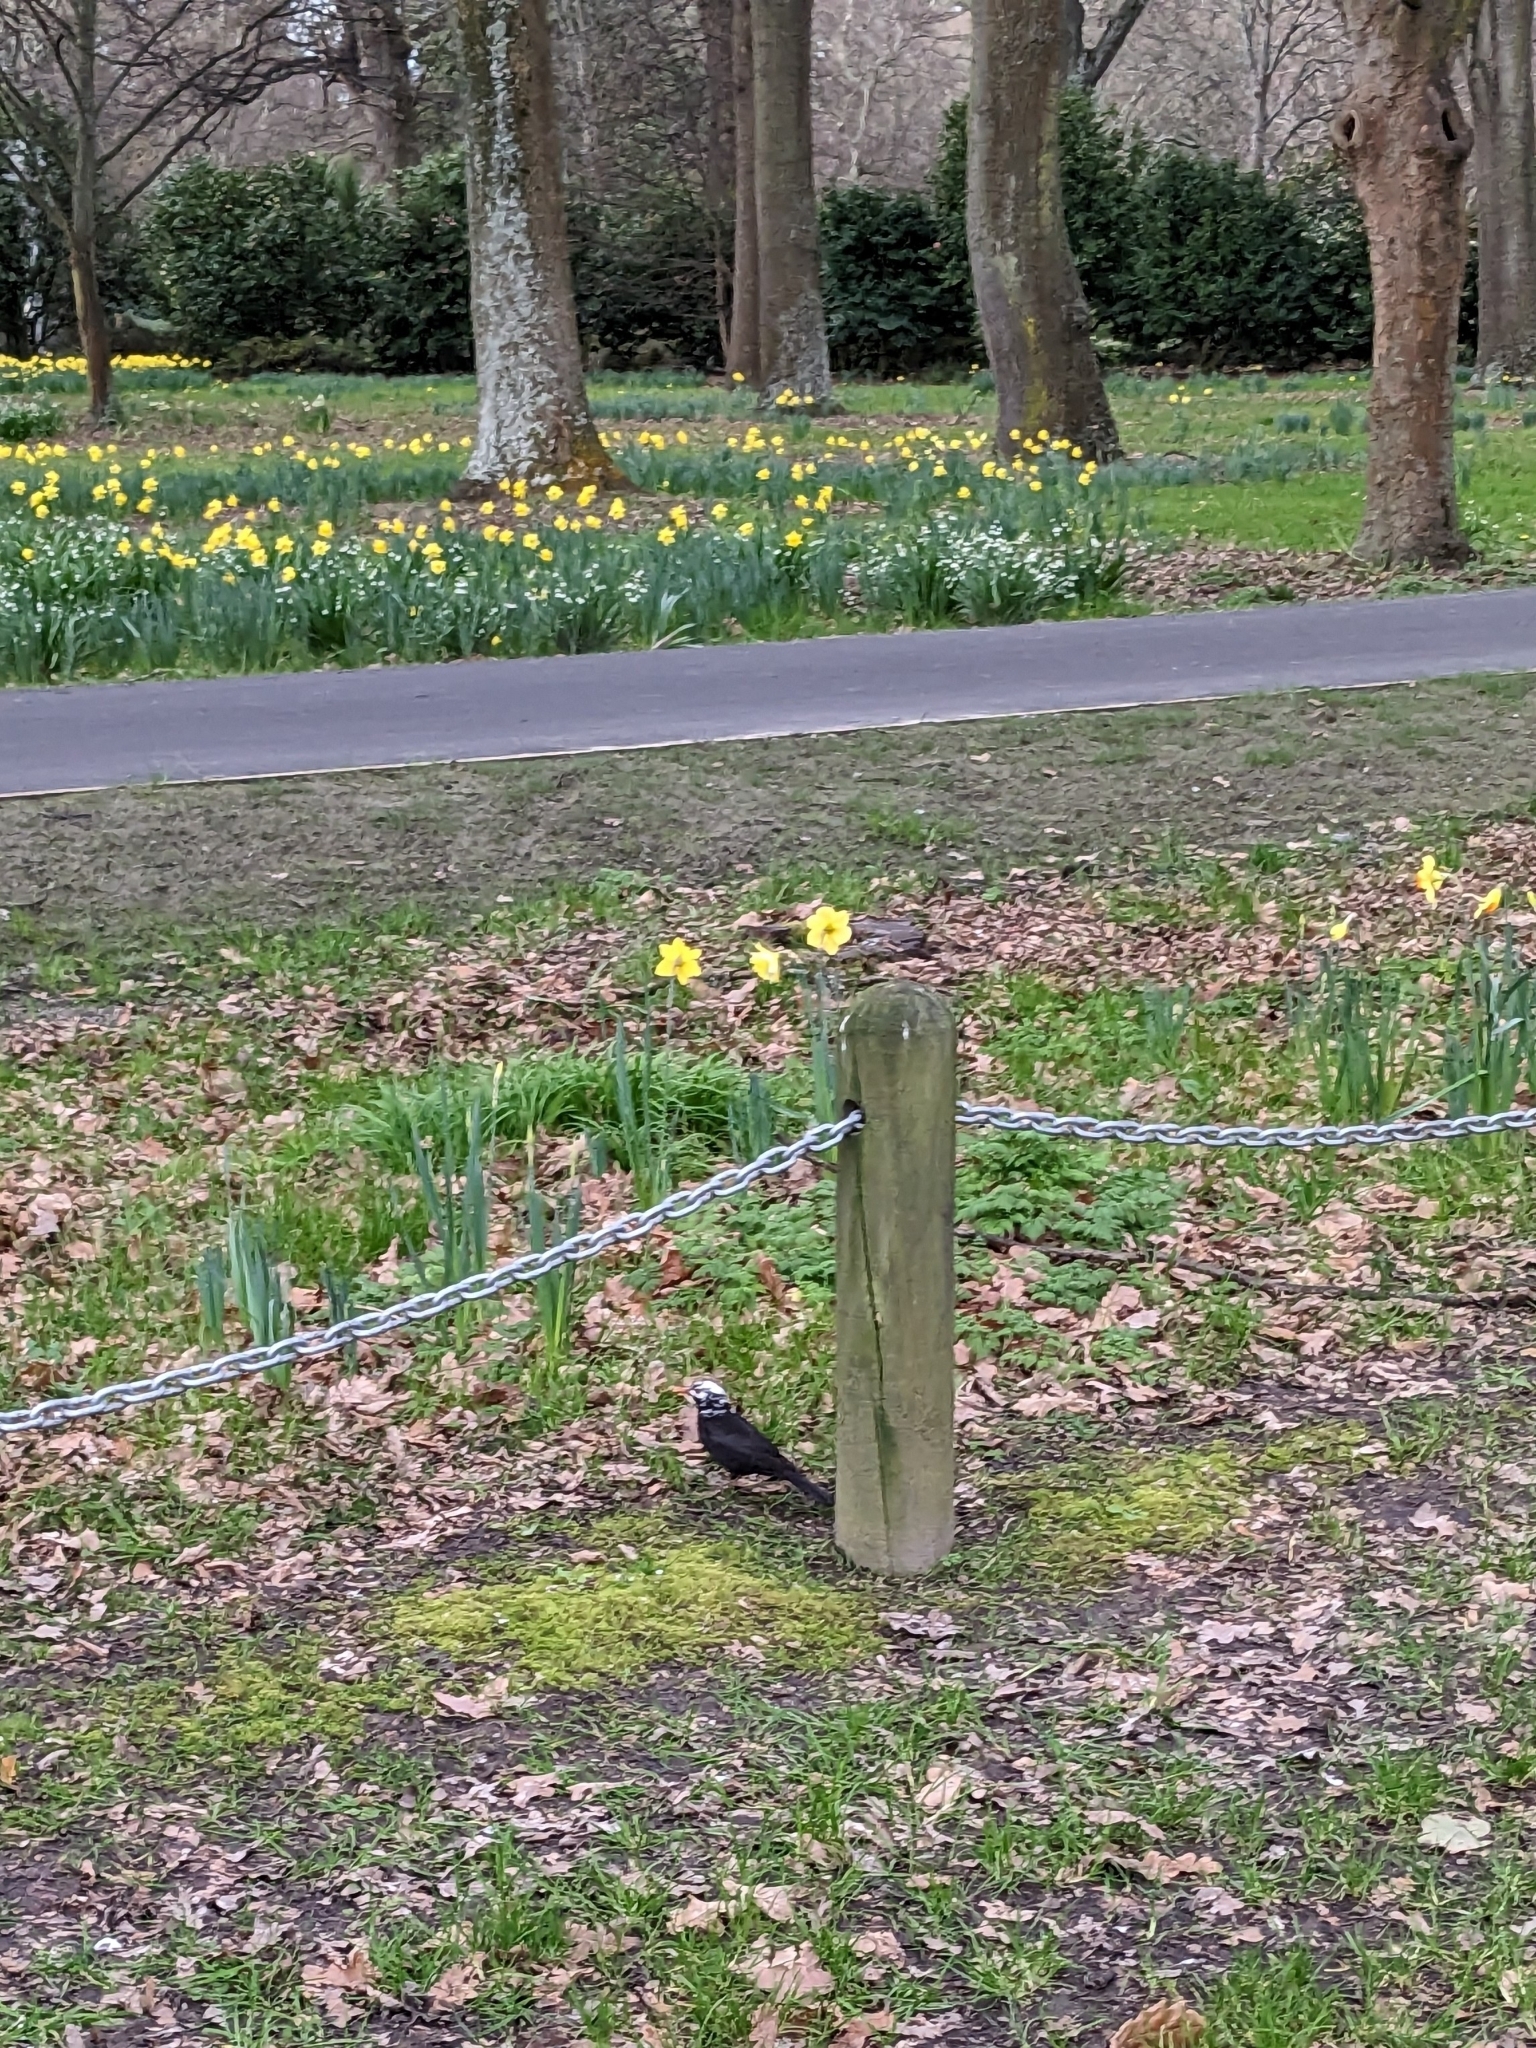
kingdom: Animalia
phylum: Chordata
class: Aves
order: Passeriformes
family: Turdidae
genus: Turdus
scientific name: Turdus merula
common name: Common blackbird
